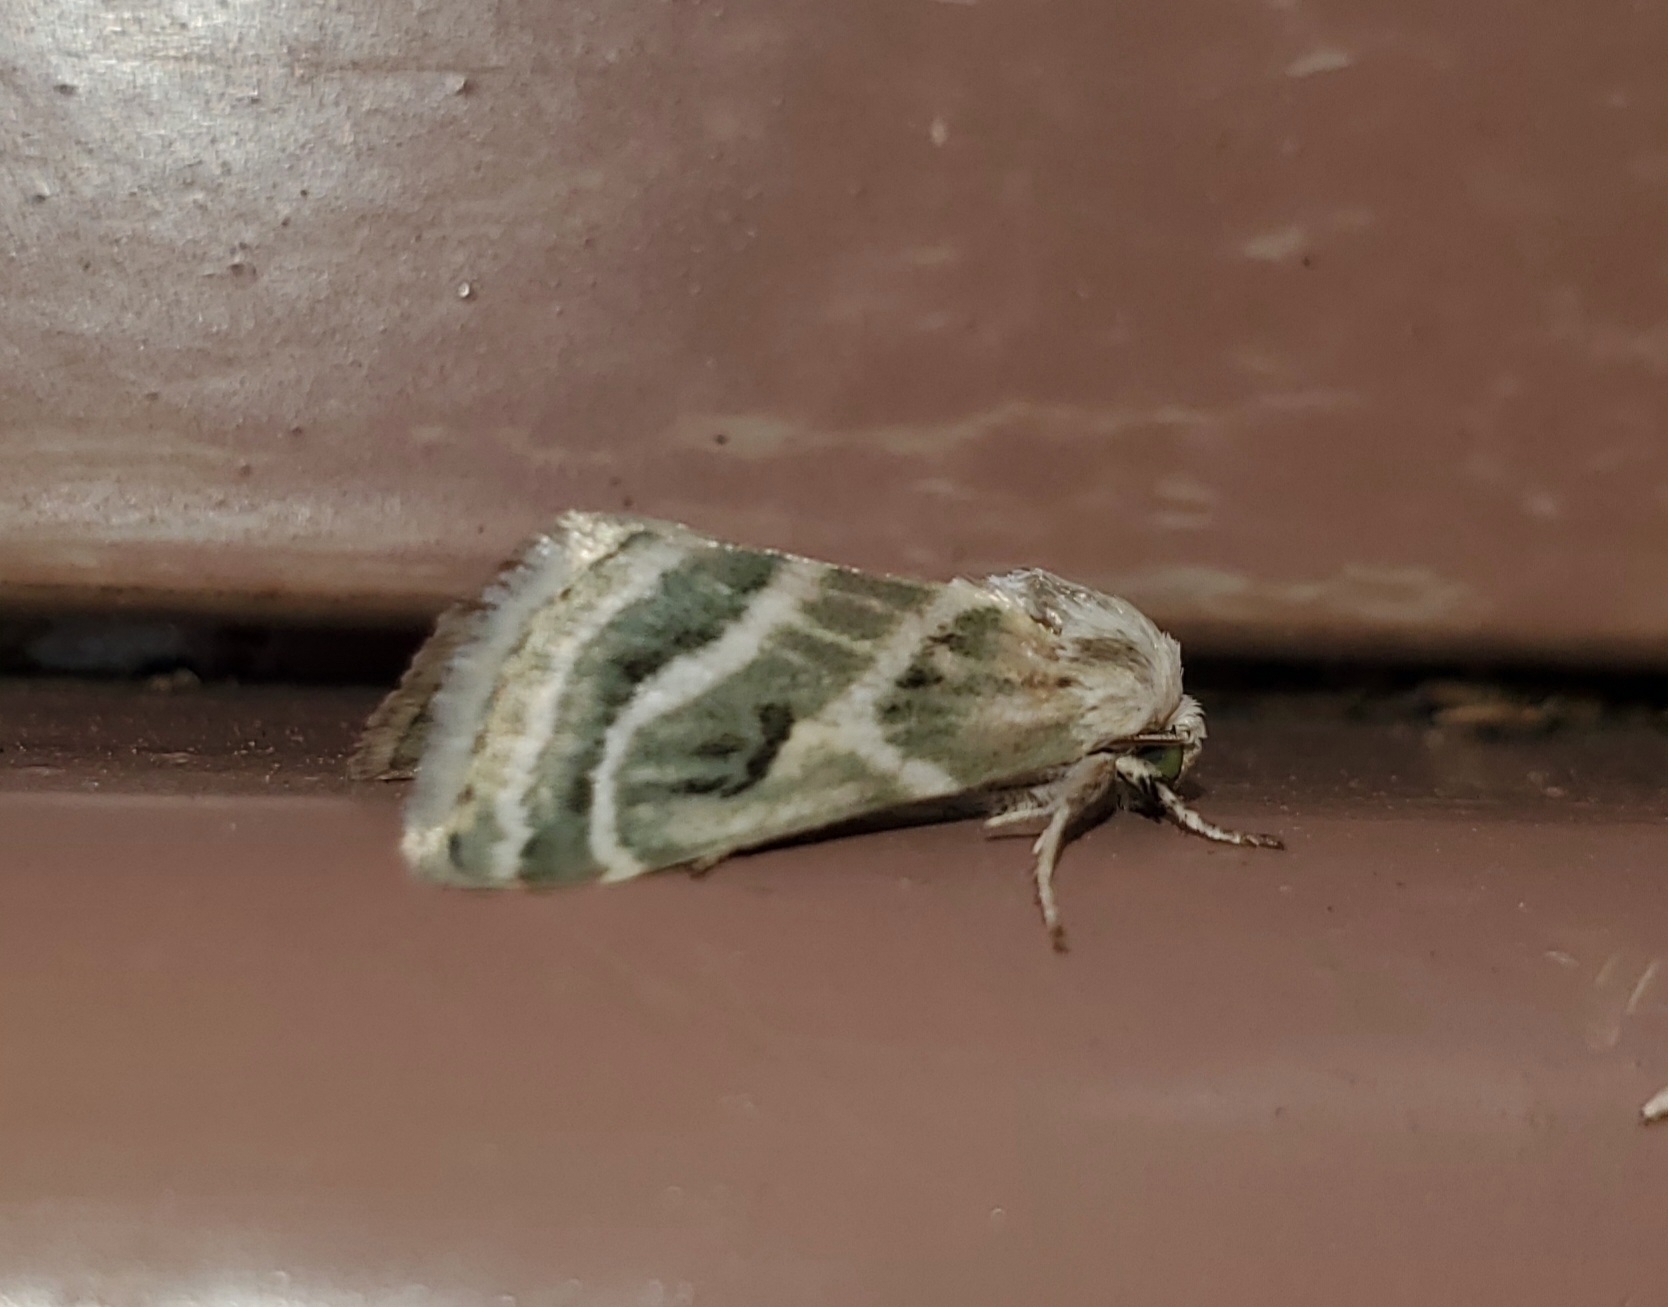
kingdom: Animalia
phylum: Arthropoda
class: Insecta
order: Lepidoptera
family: Noctuidae
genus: Schinia
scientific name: Schinia accessa
